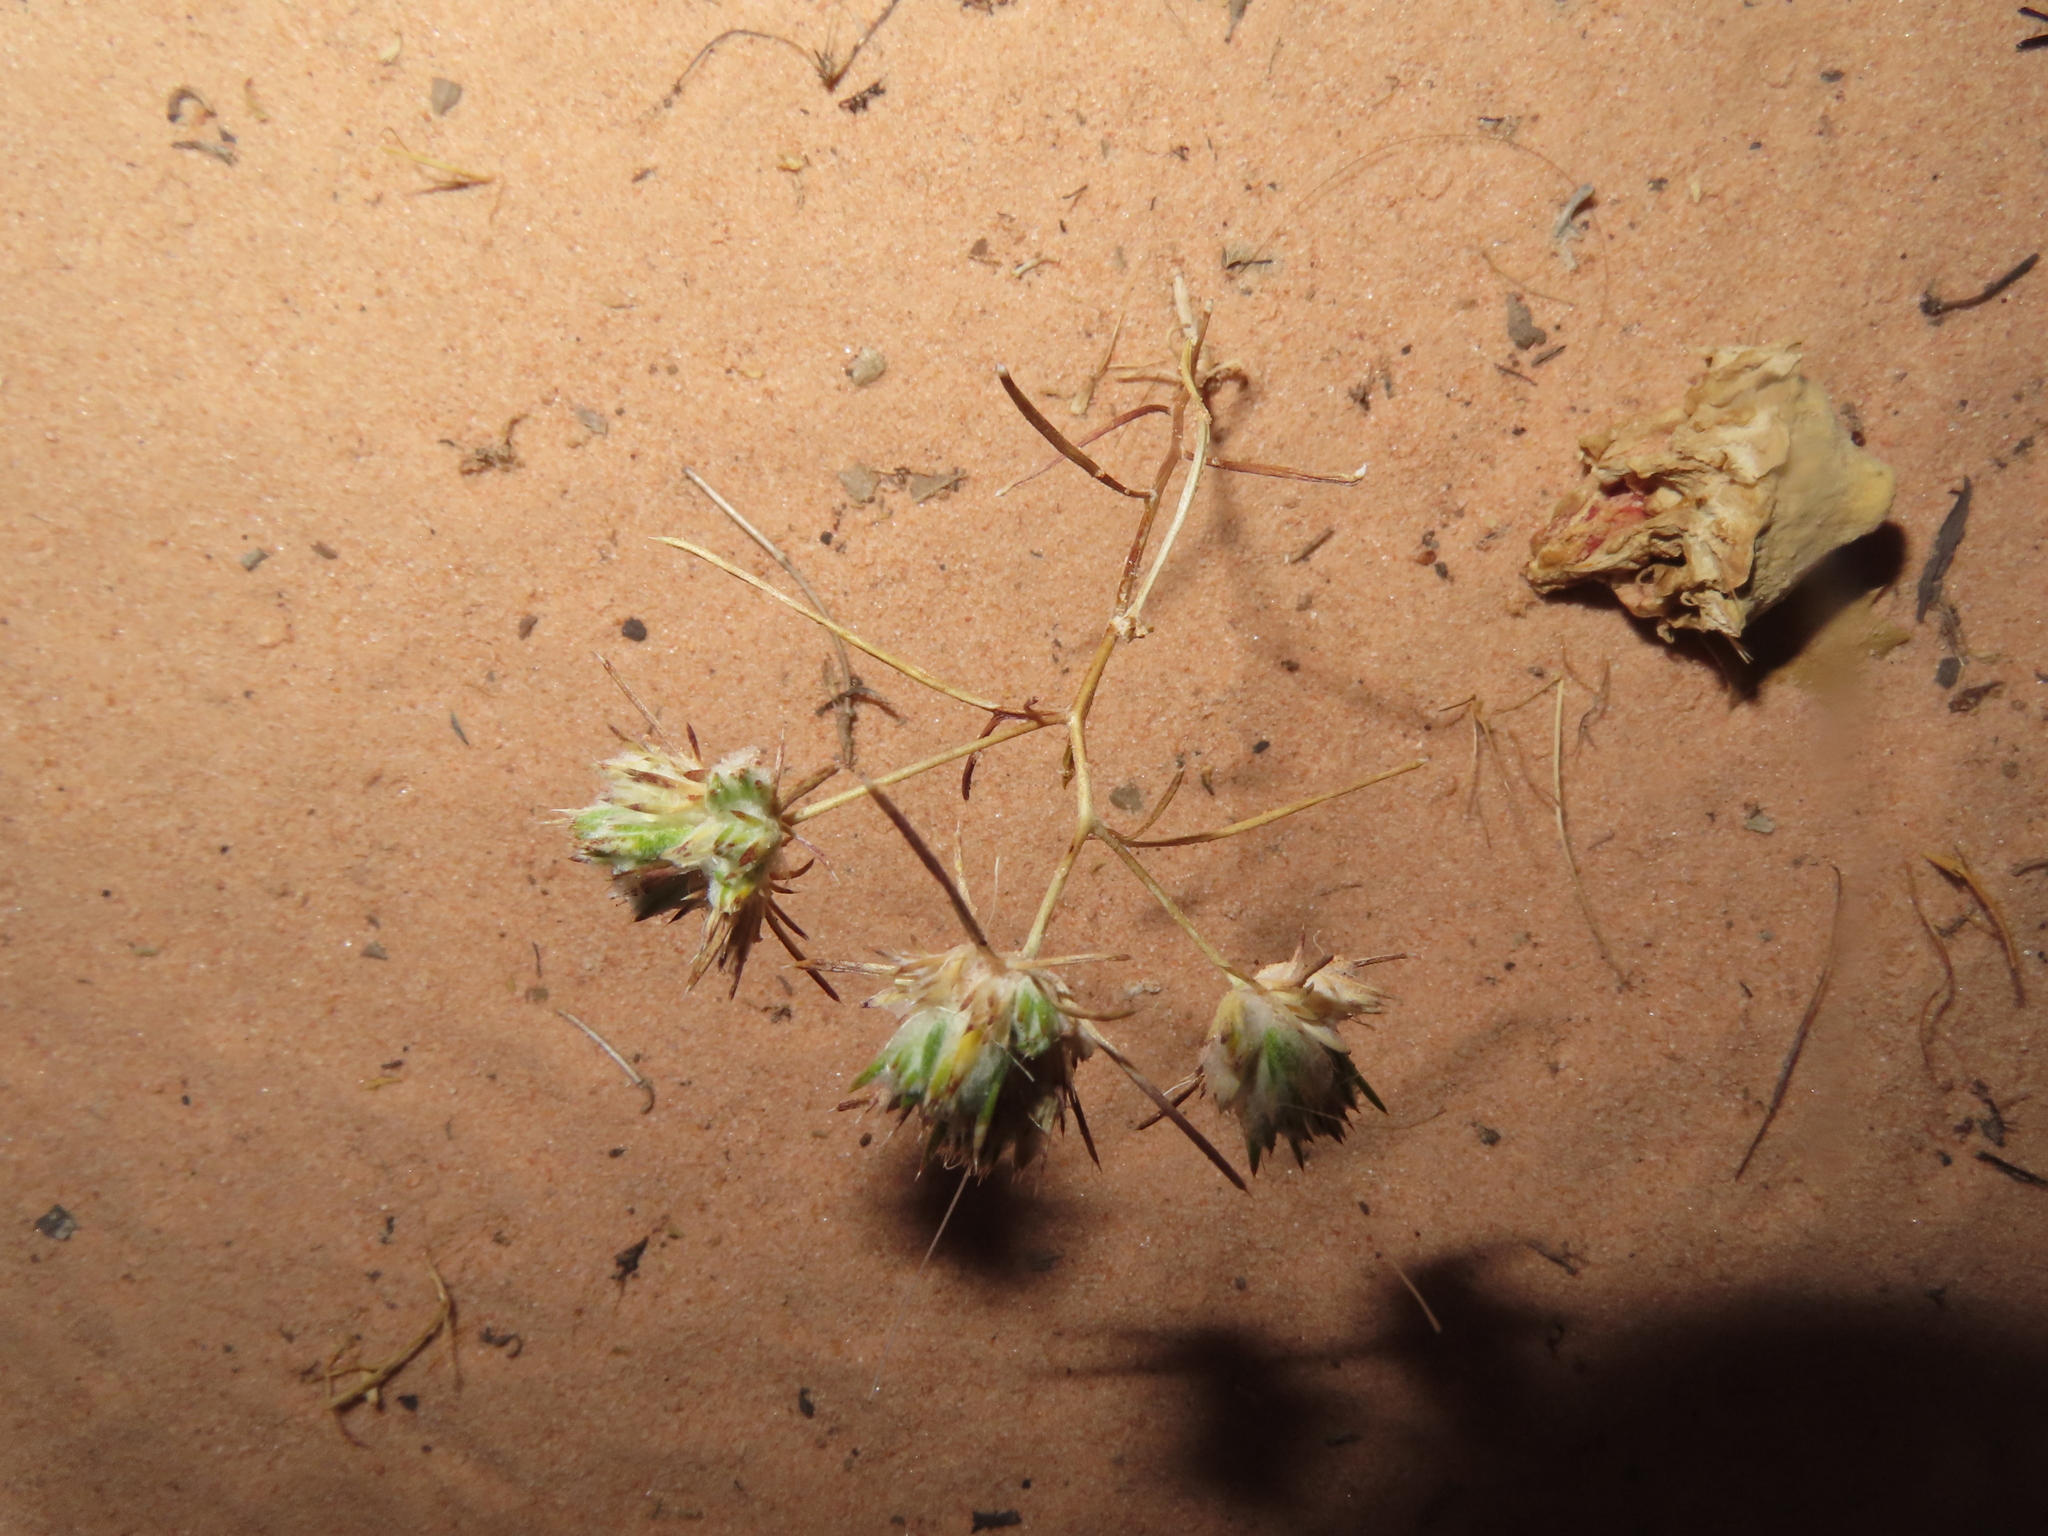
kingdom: Plantae
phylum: Tracheophyta
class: Magnoliopsida
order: Ericales
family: Polemoniaceae
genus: Eriastrum
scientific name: Eriastrum diffusum
